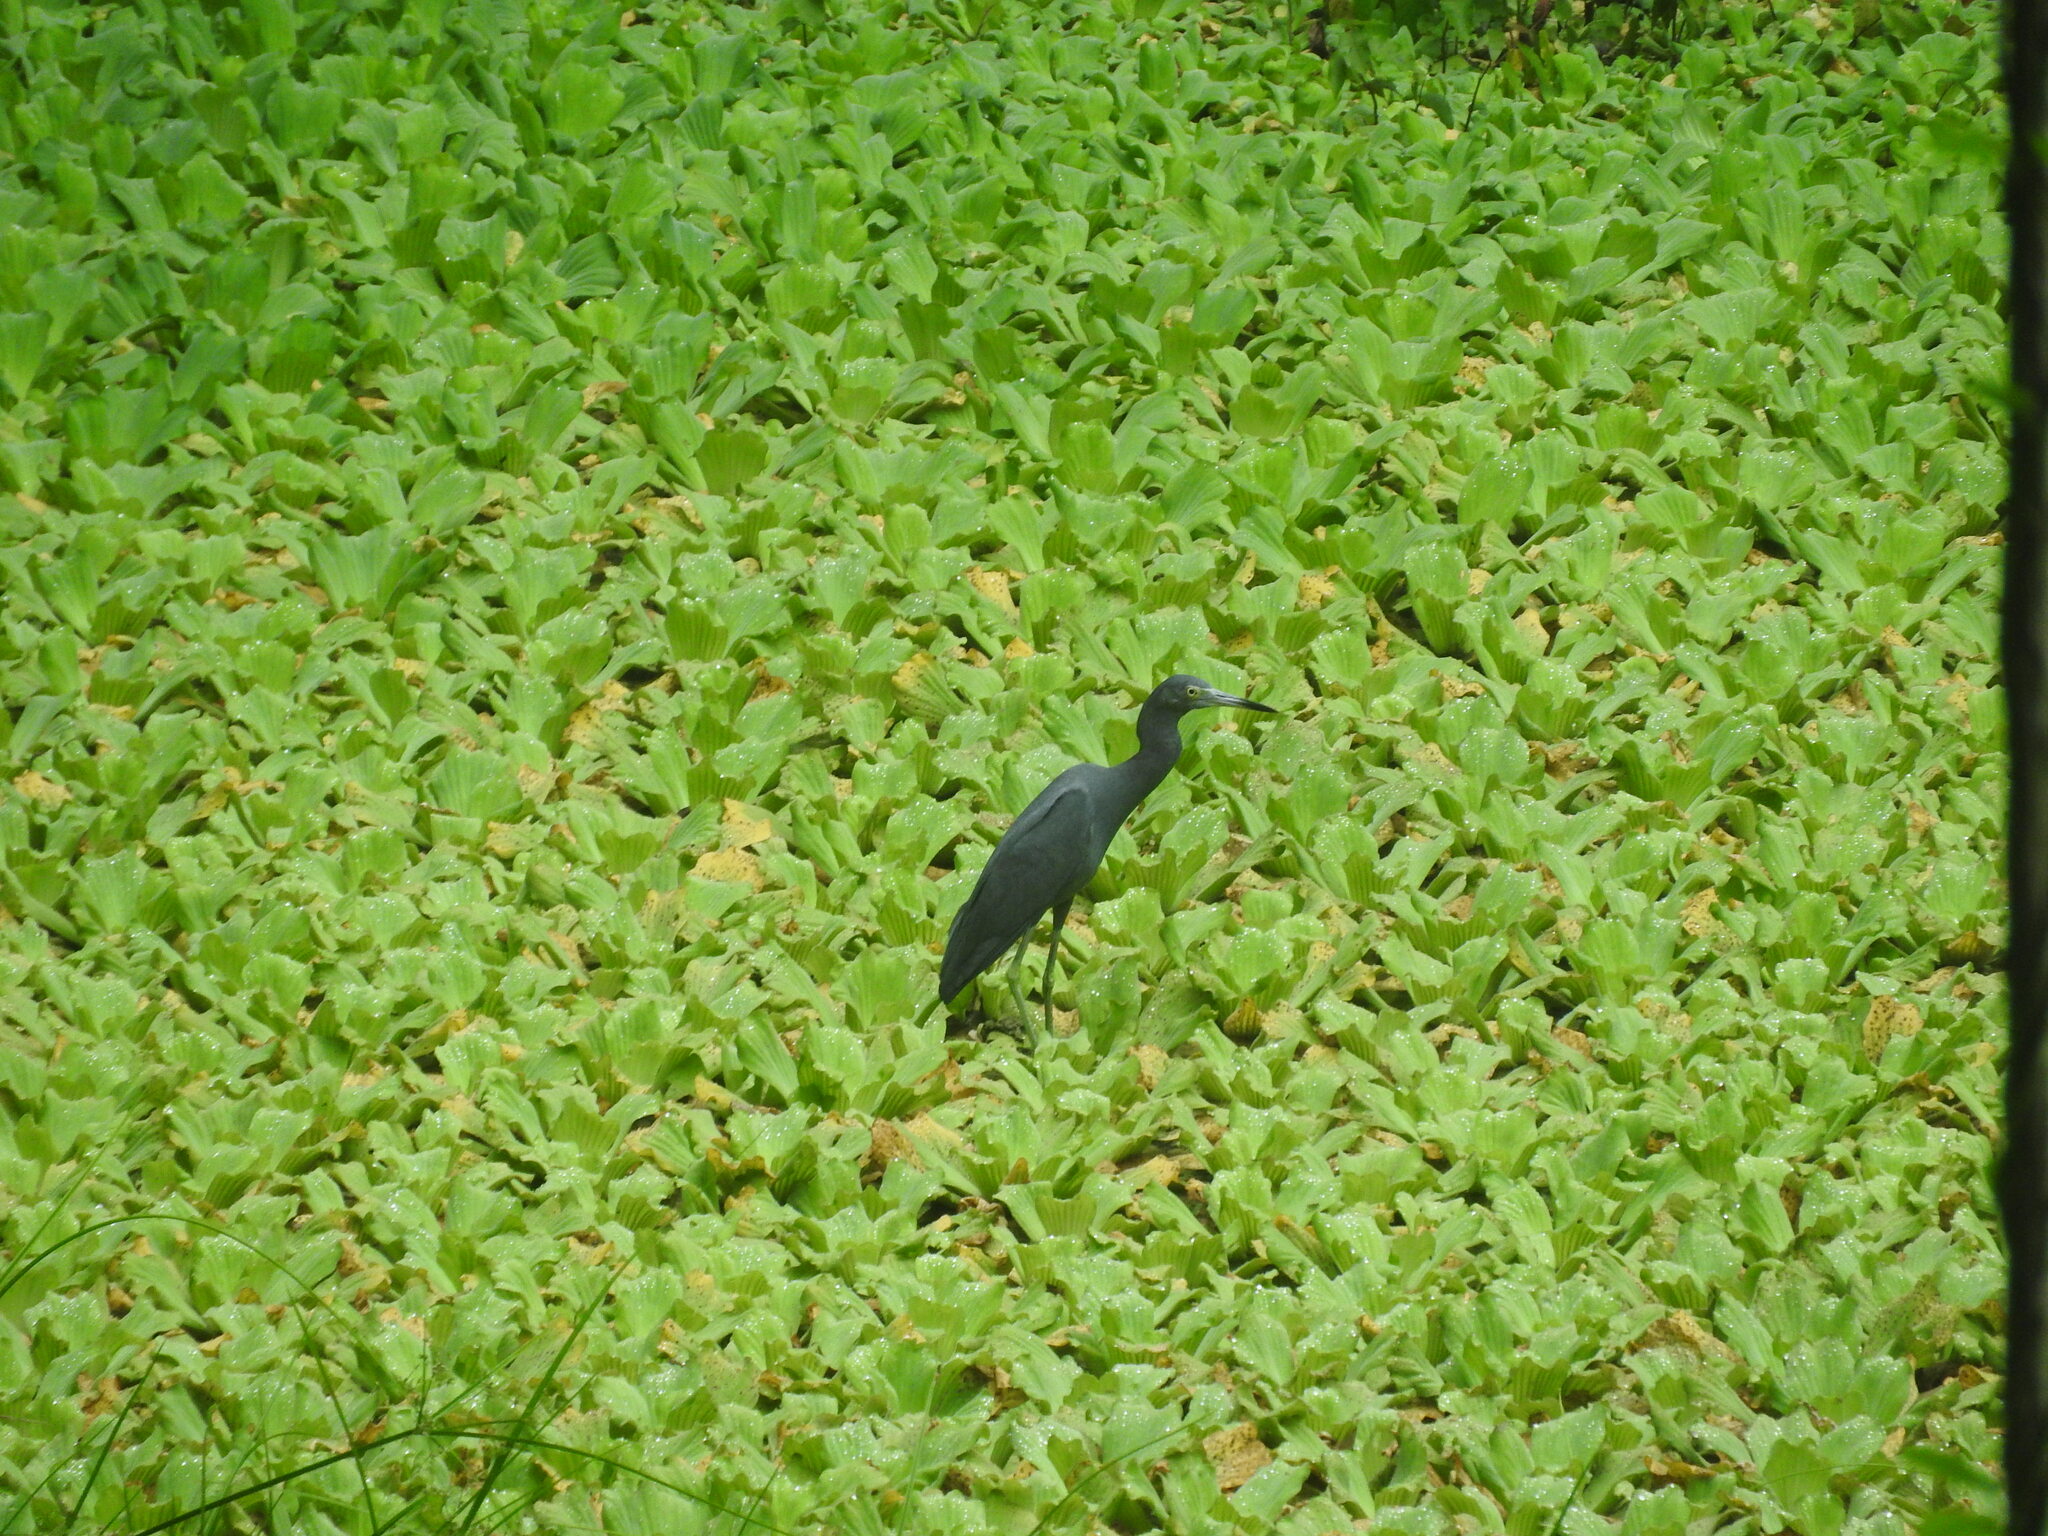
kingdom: Animalia
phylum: Chordata
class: Aves
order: Pelecaniformes
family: Ardeidae
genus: Egretta
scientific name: Egretta caerulea
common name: Little blue heron
